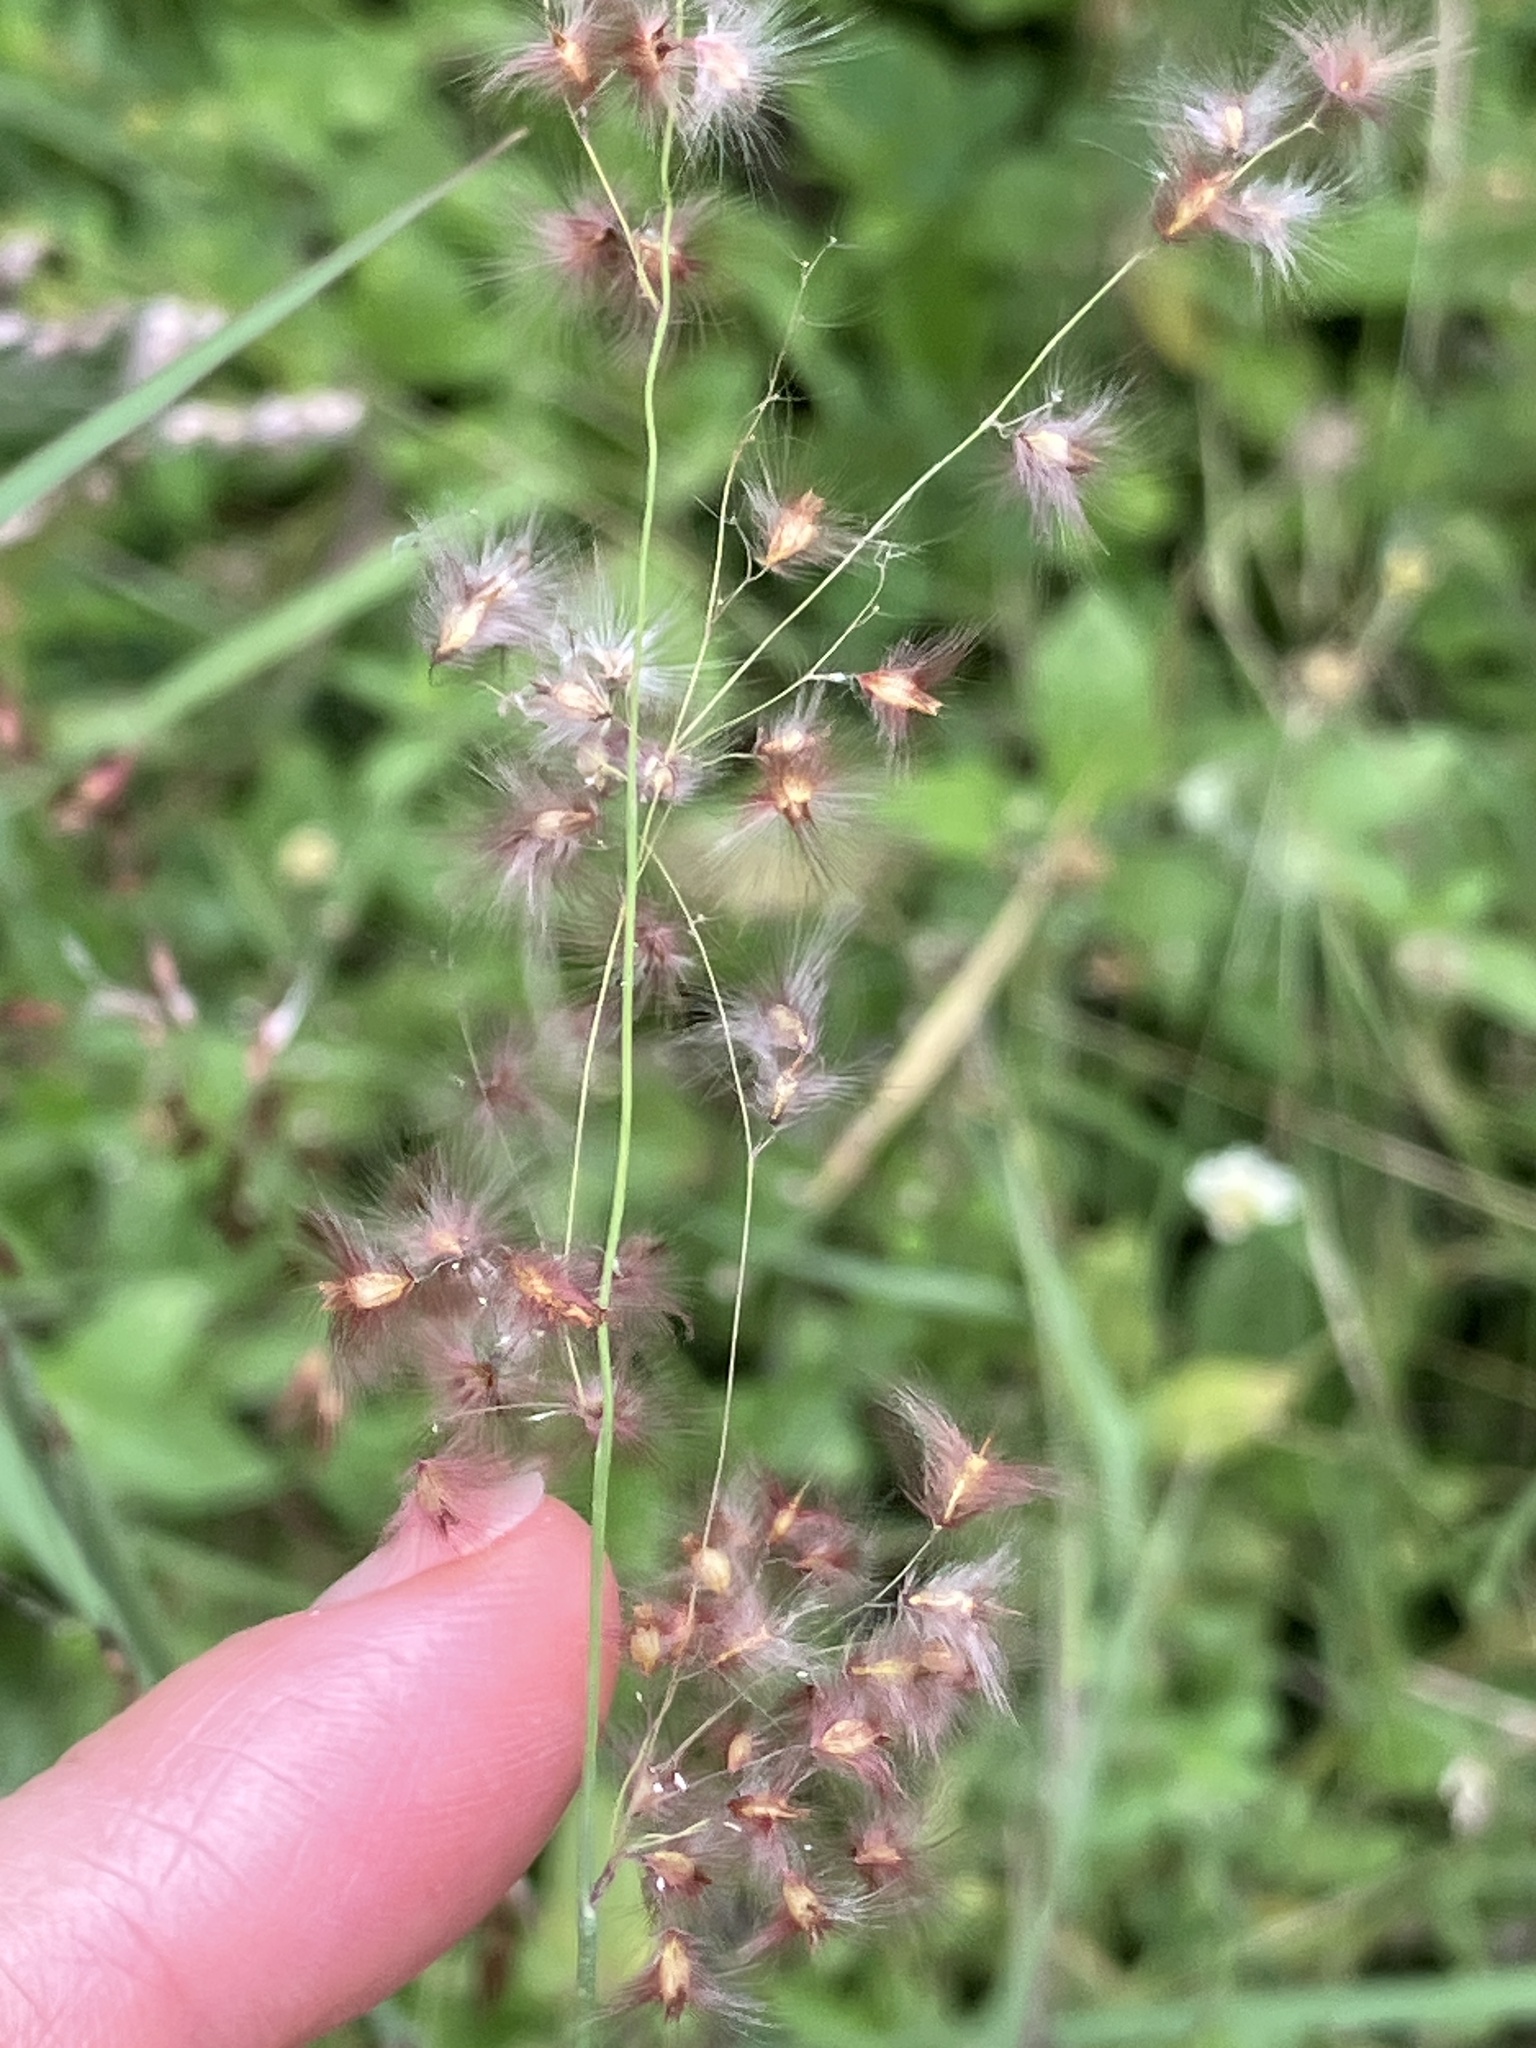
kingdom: Plantae
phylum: Tracheophyta
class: Liliopsida
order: Poales
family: Poaceae
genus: Melinis
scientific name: Melinis repens
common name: Rose natal grass
